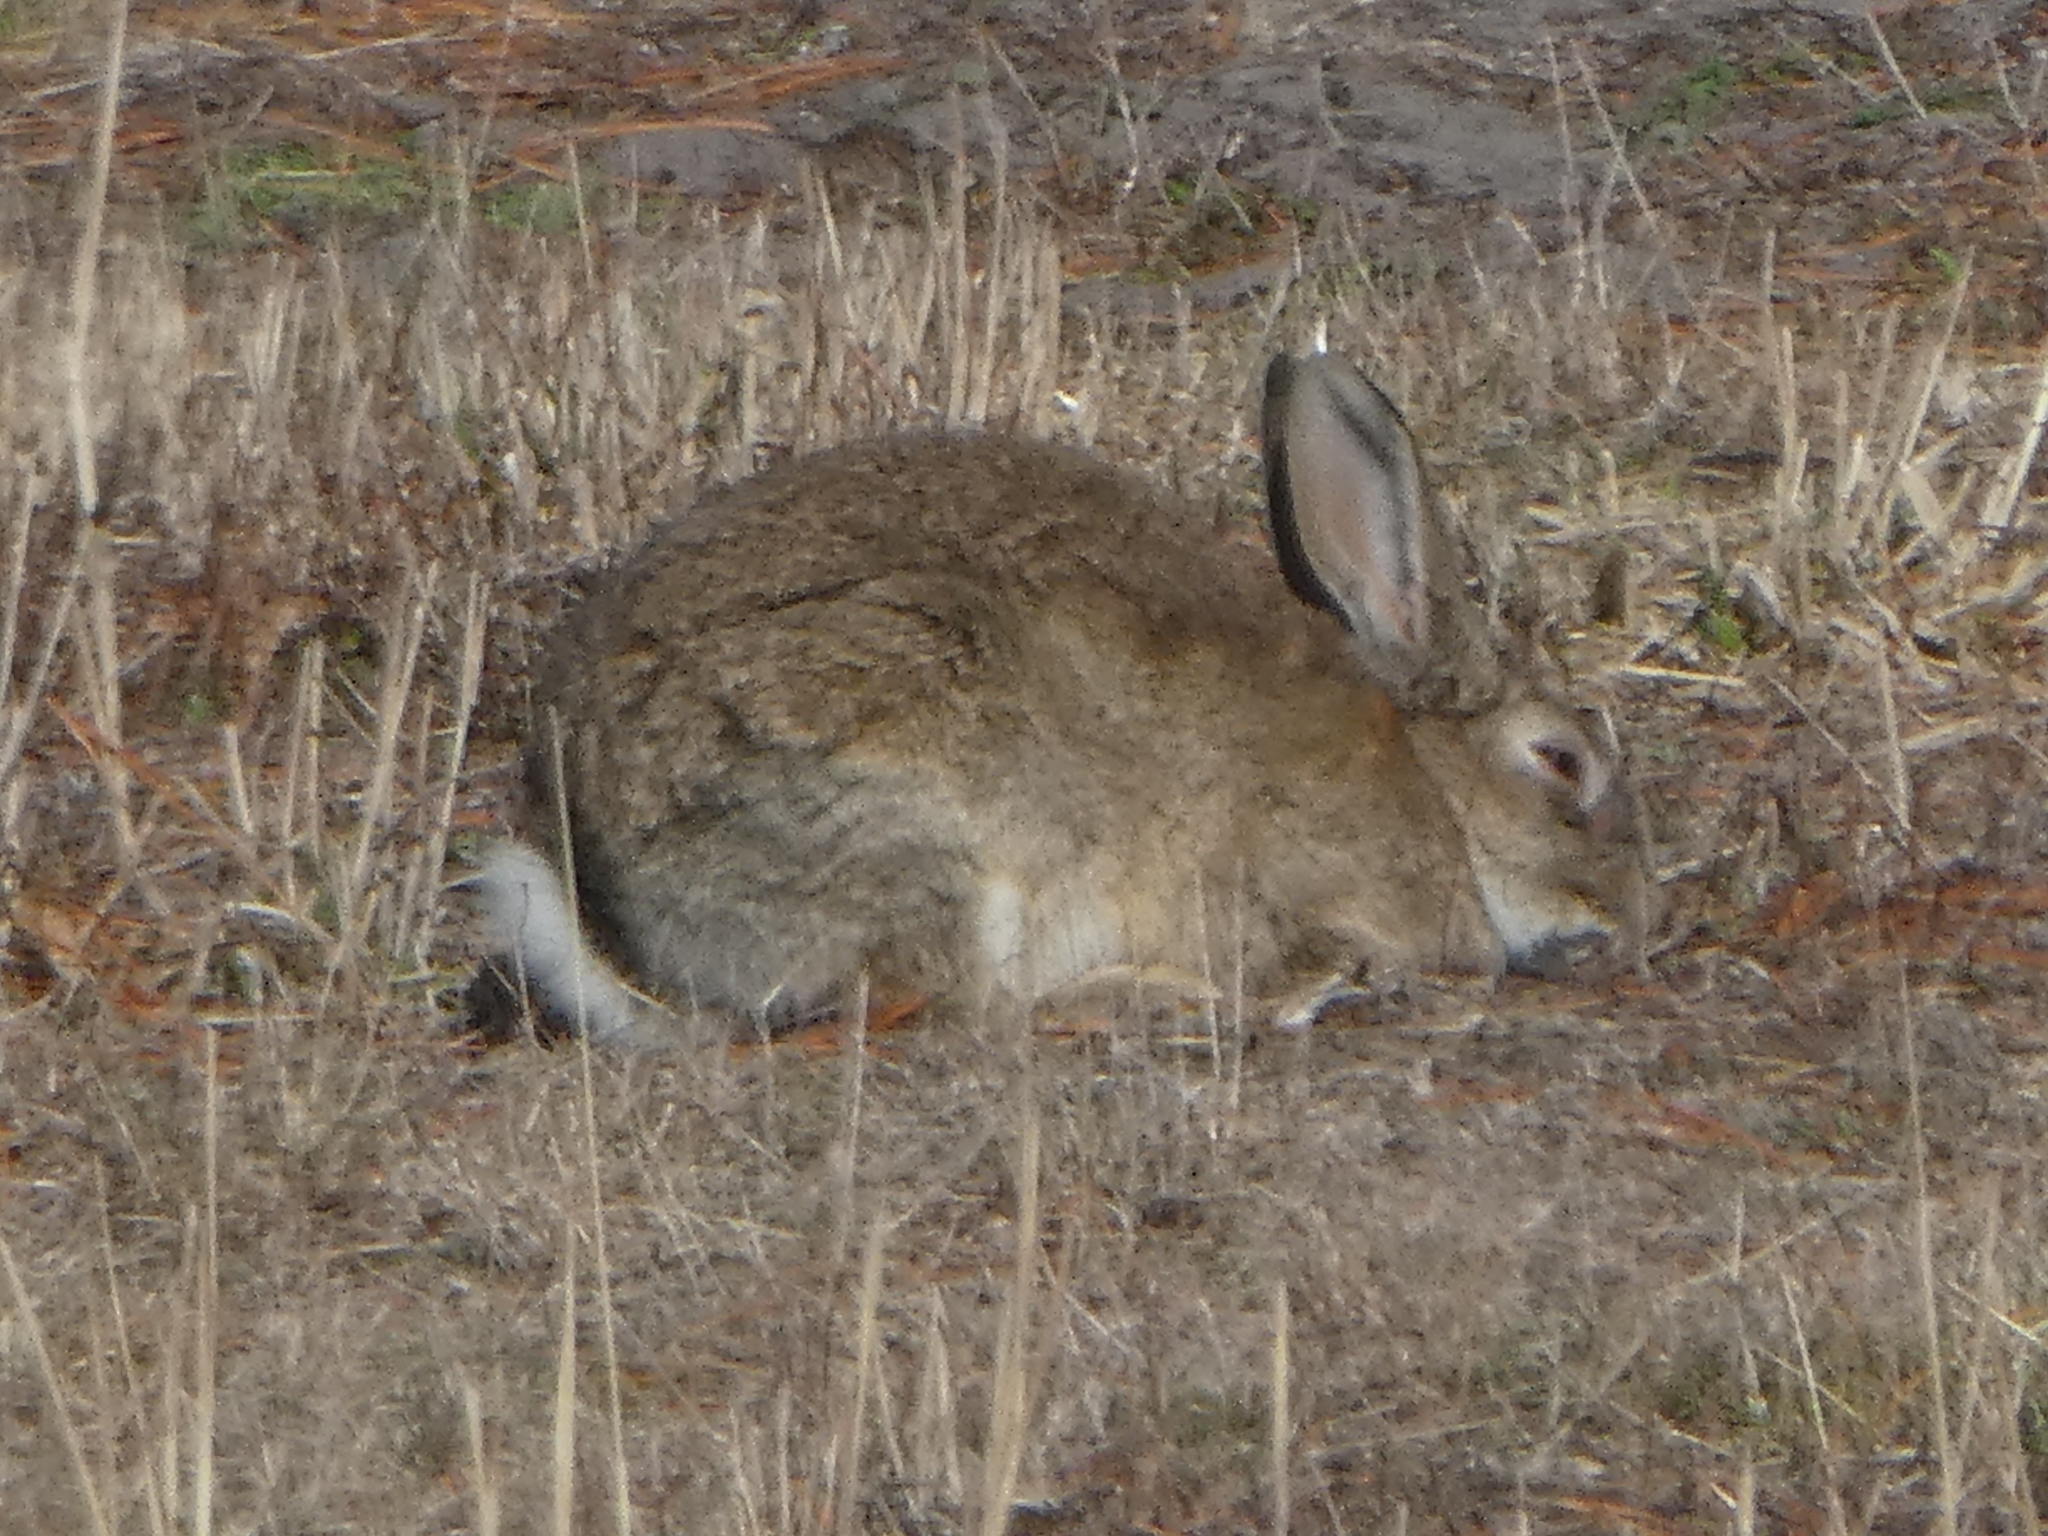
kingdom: Animalia
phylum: Chordata
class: Mammalia
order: Lagomorpha
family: Leporidae
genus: Oryctolagus
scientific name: Oryctolagus cuniculus
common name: European rabbit
